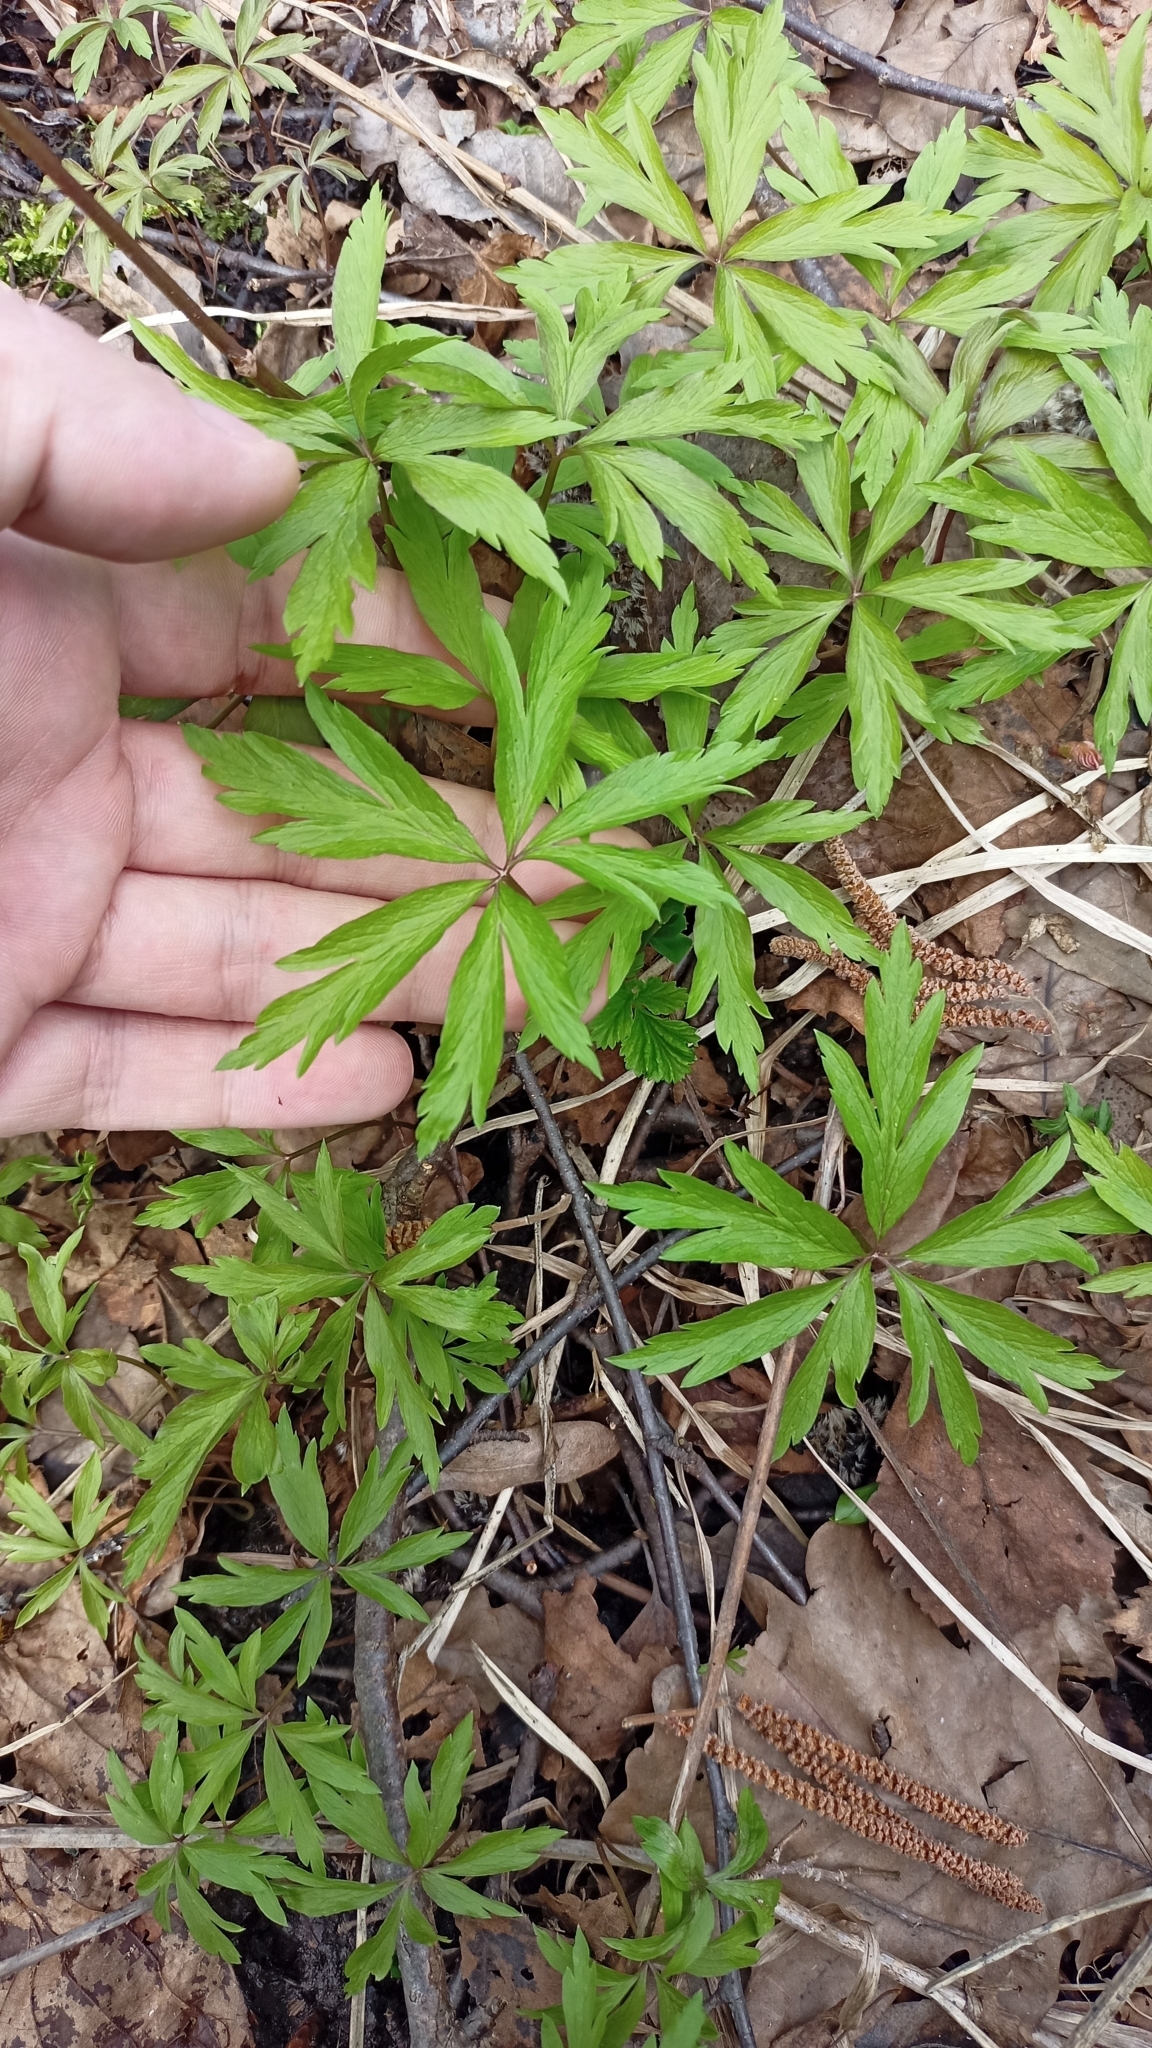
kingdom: Plantae
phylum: Tracheophyta
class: Magnoliopsida
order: Ranunculales
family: Ranunculaceae
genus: Anemone
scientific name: Anemone ranunculoides
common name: Yellow anemone
